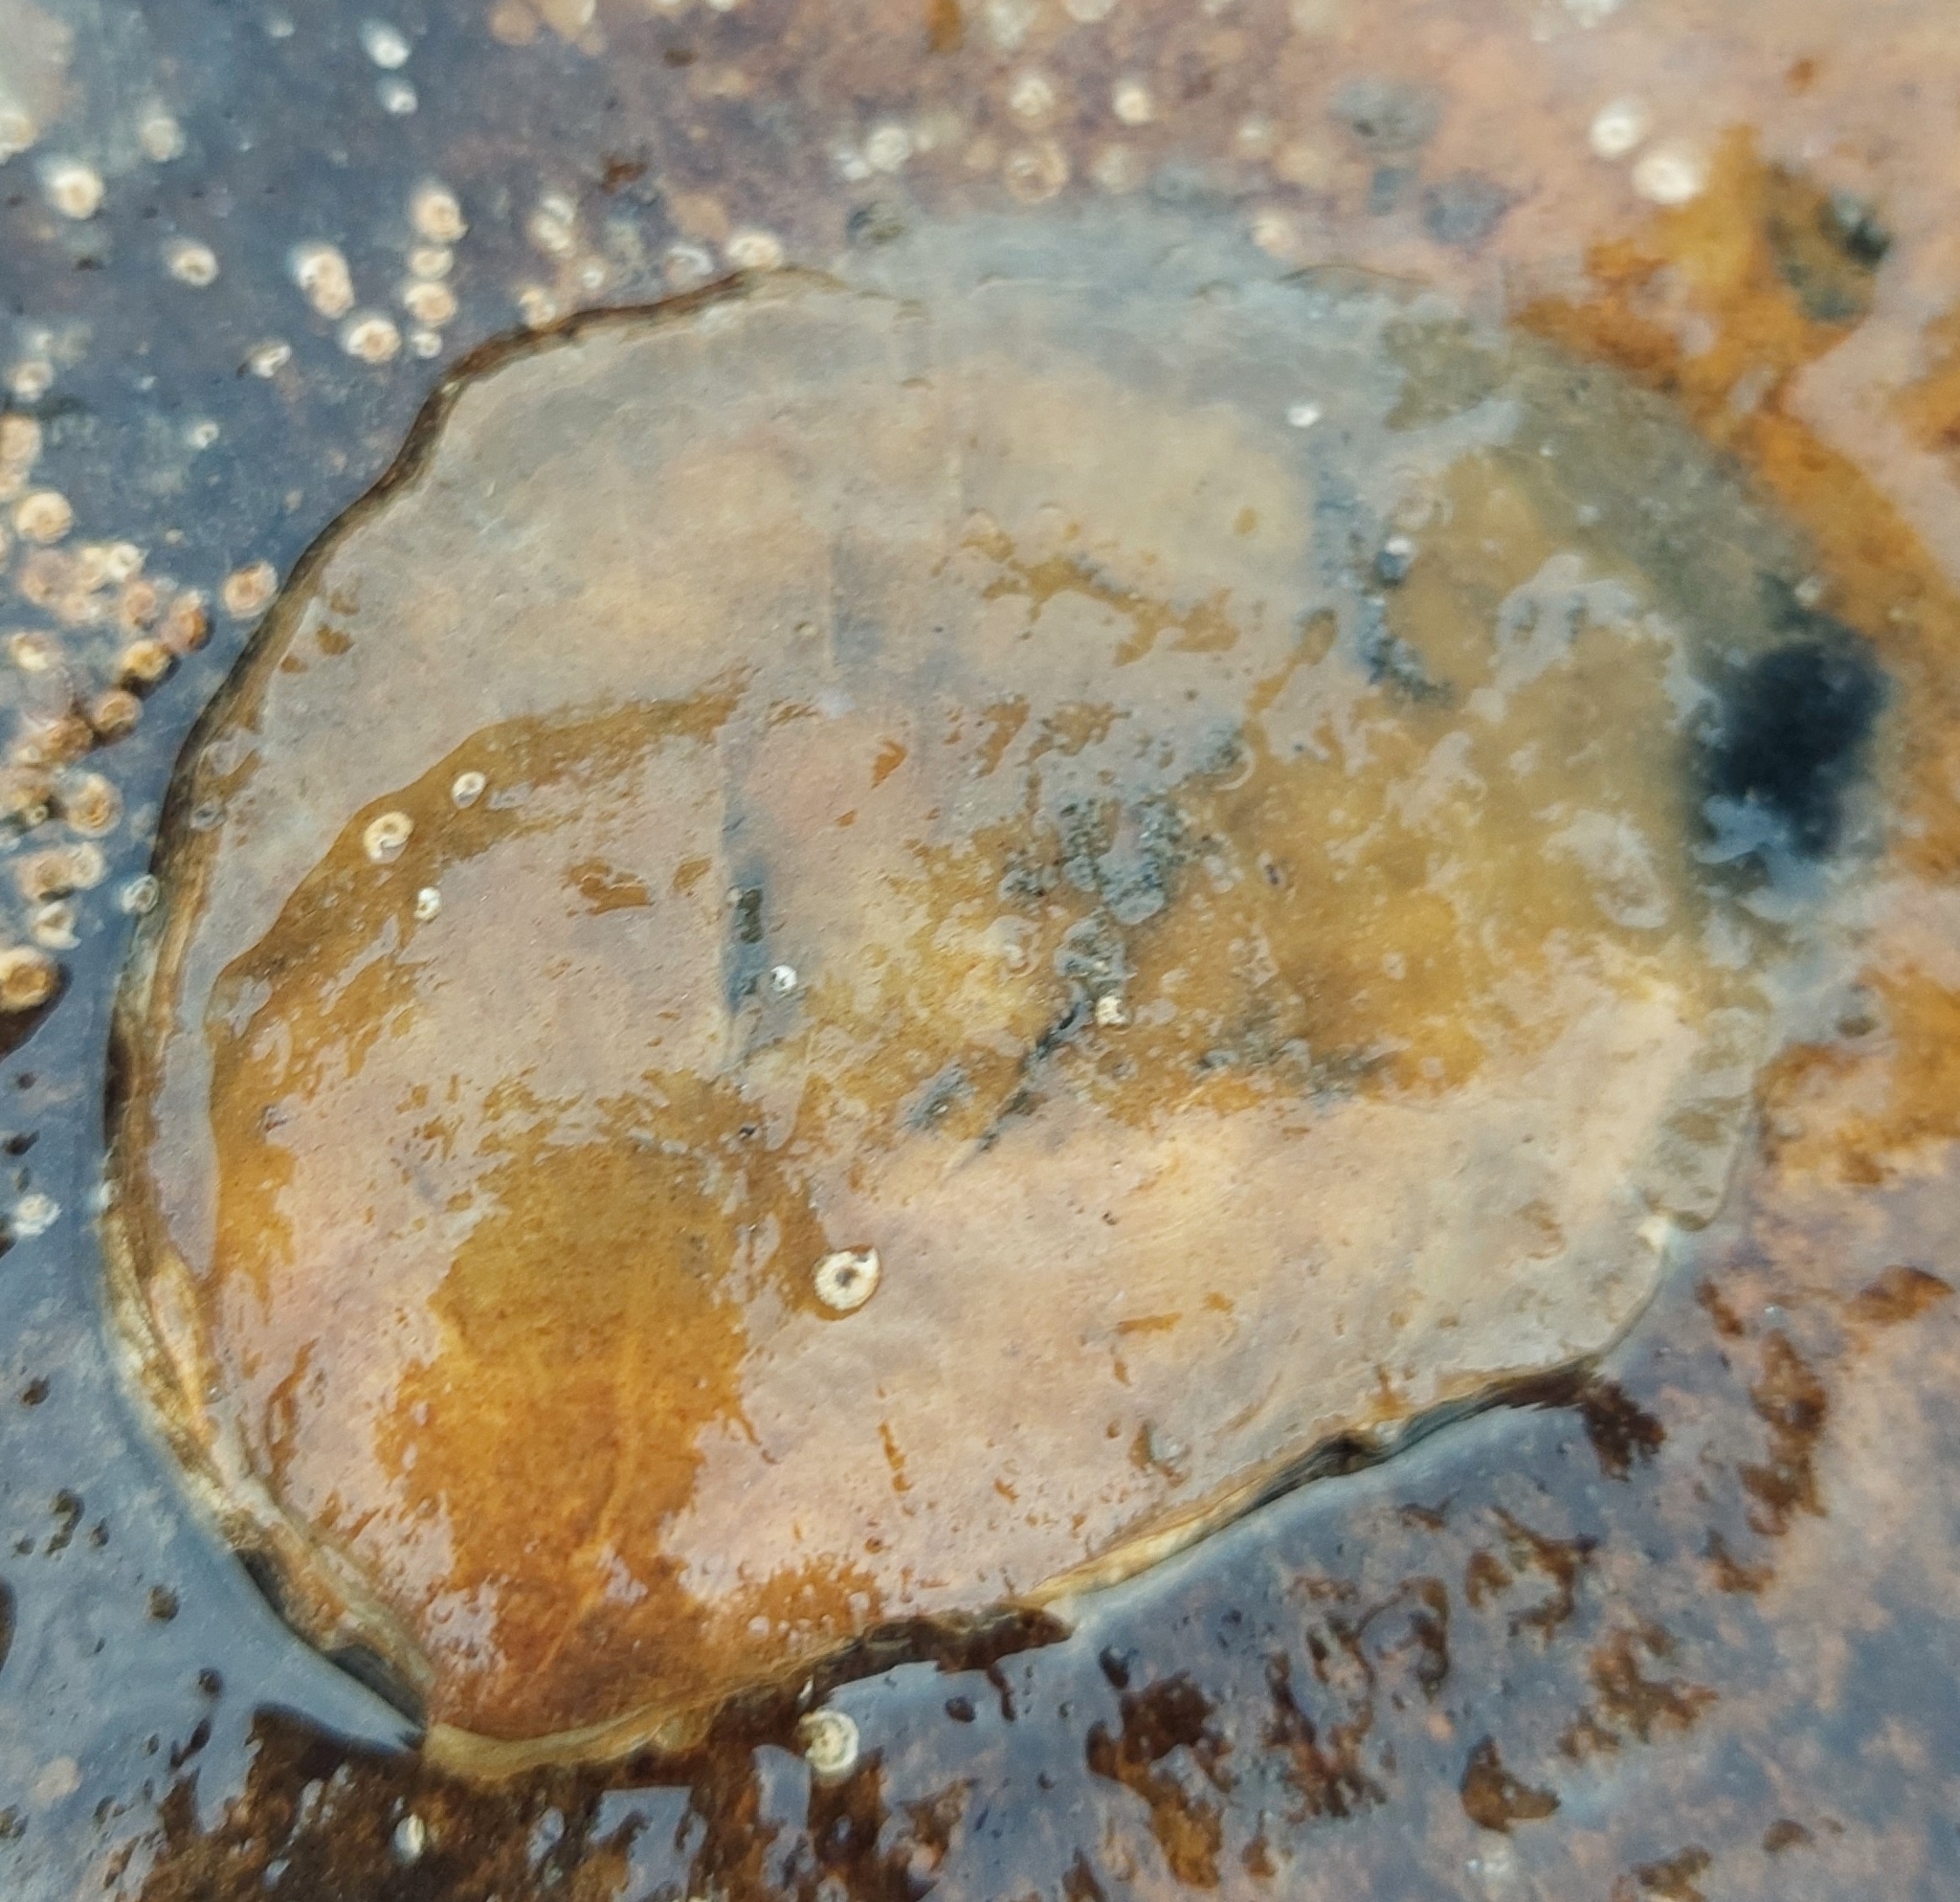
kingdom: Animalia
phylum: Mollusca
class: Bivalvia
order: Ostreida
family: Ostreidae
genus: Magallana
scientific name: Magallana gigas
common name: Pacific oyster
